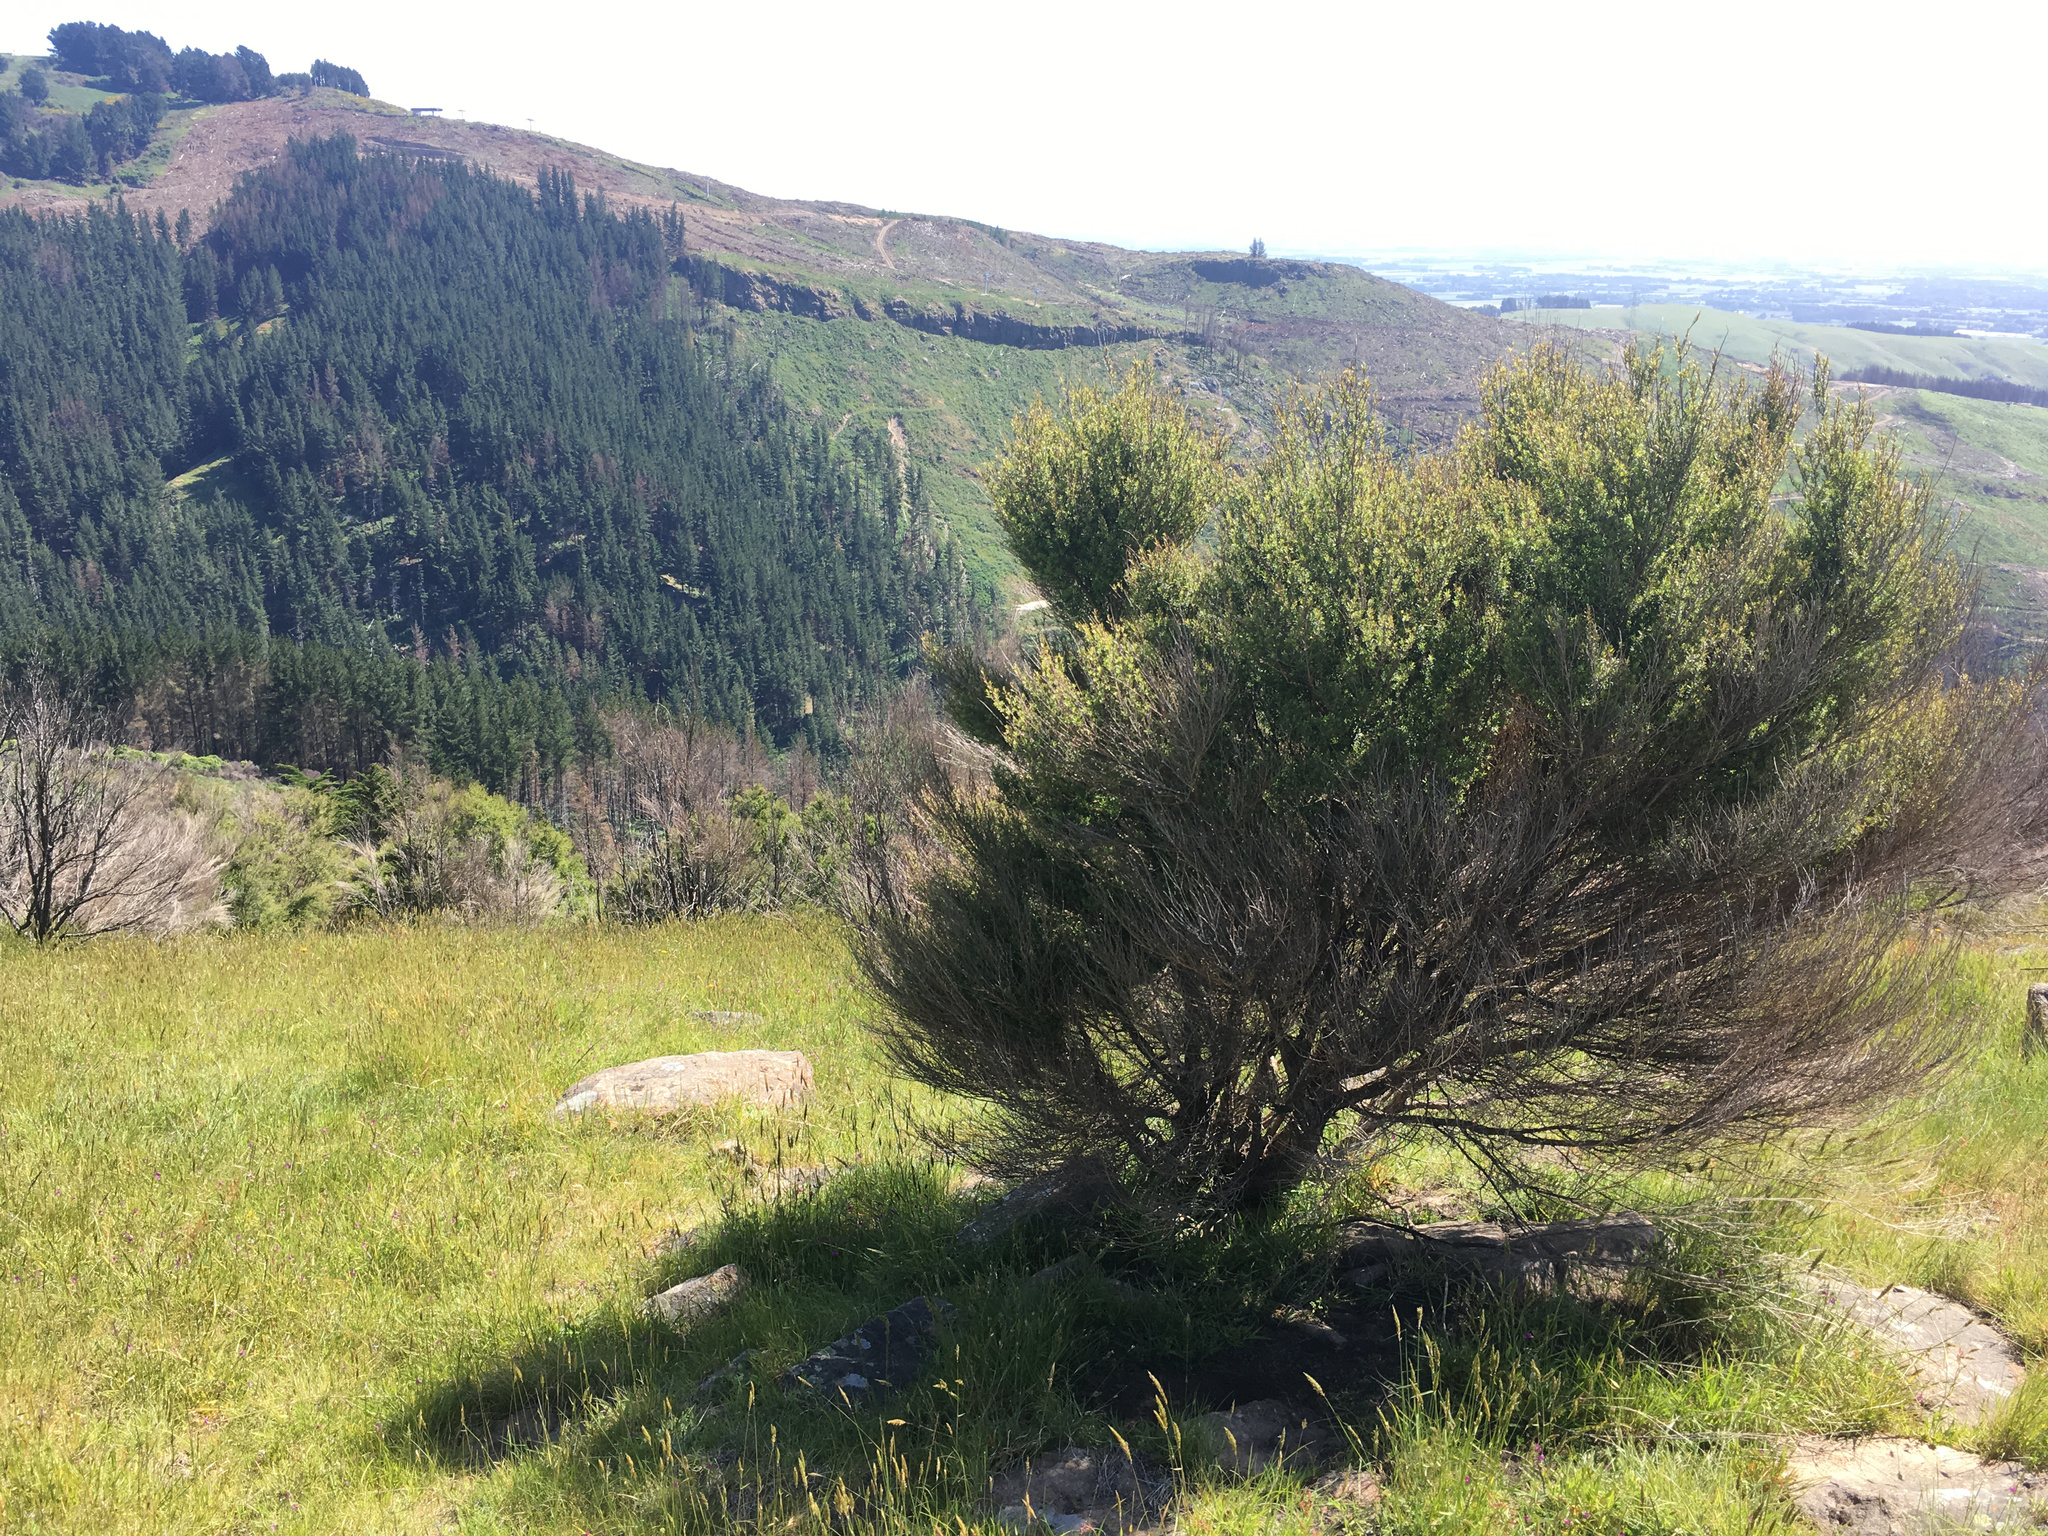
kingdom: Plantae
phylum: Tracheophyta
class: Magnoliopsida
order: Myrtales
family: Myrtaceae
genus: Kunzea
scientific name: Kunzea robusta
